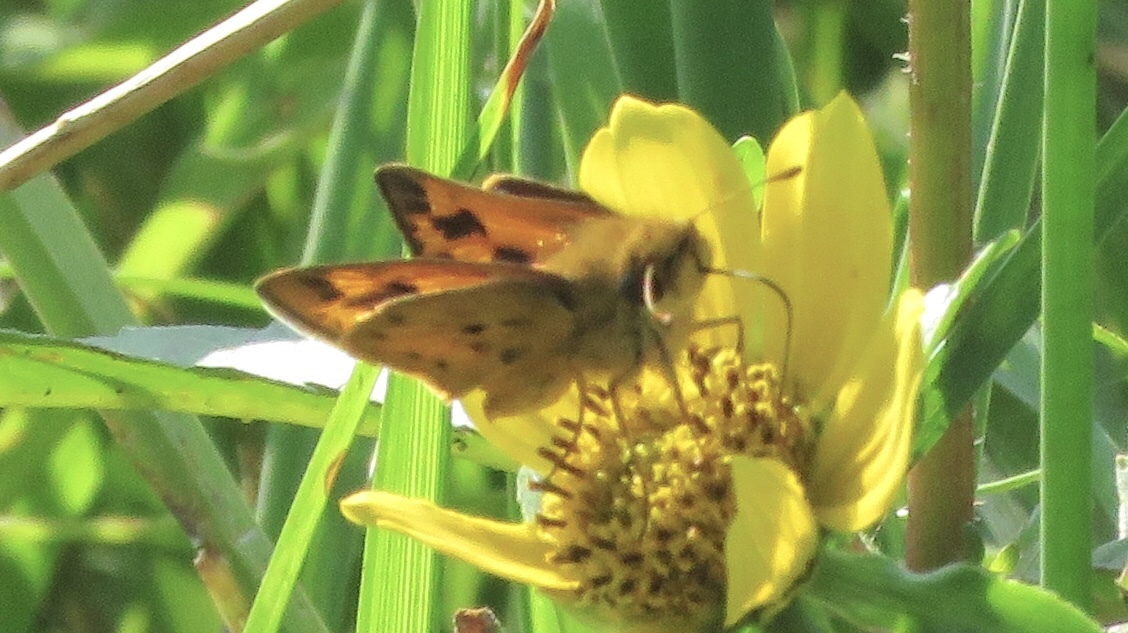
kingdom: Animalia
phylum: Arthropoda
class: Insecta
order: Lepidoptera
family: Hesperiidae
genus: Hylephila
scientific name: Hylephila phyleus
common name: Fiery skipper
